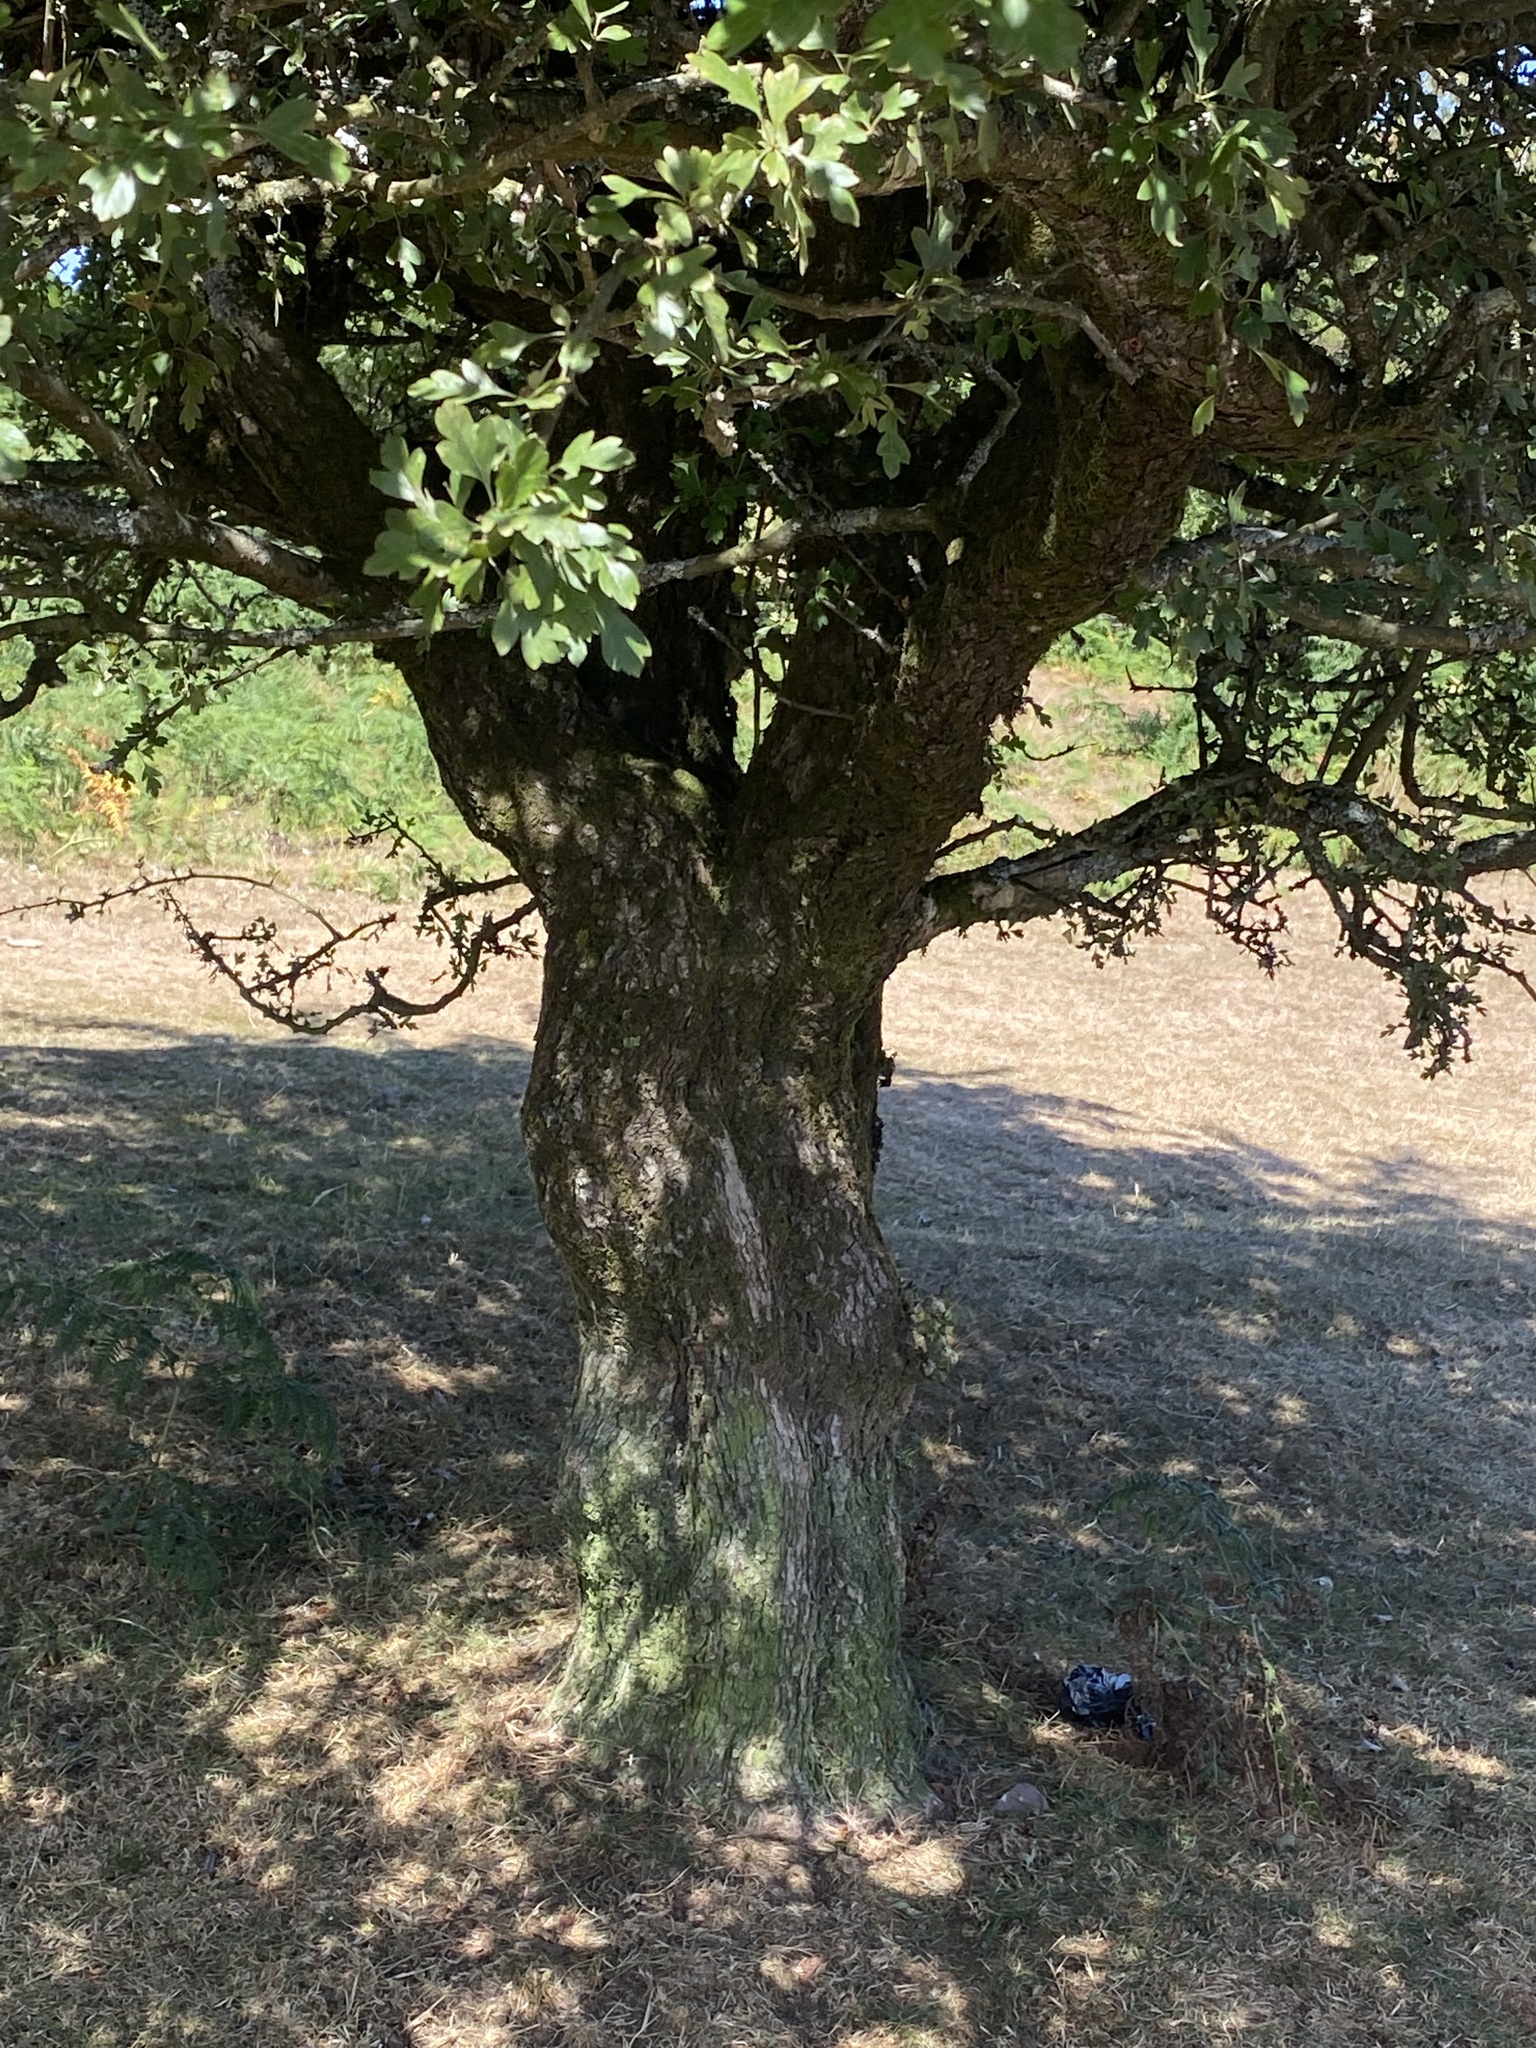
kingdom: Plantae
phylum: Tracheophyta
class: Magnoliopsida
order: Rosales
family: Rosaceae
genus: Crataegus
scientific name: Crataegus monogyna
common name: Hawthorn
